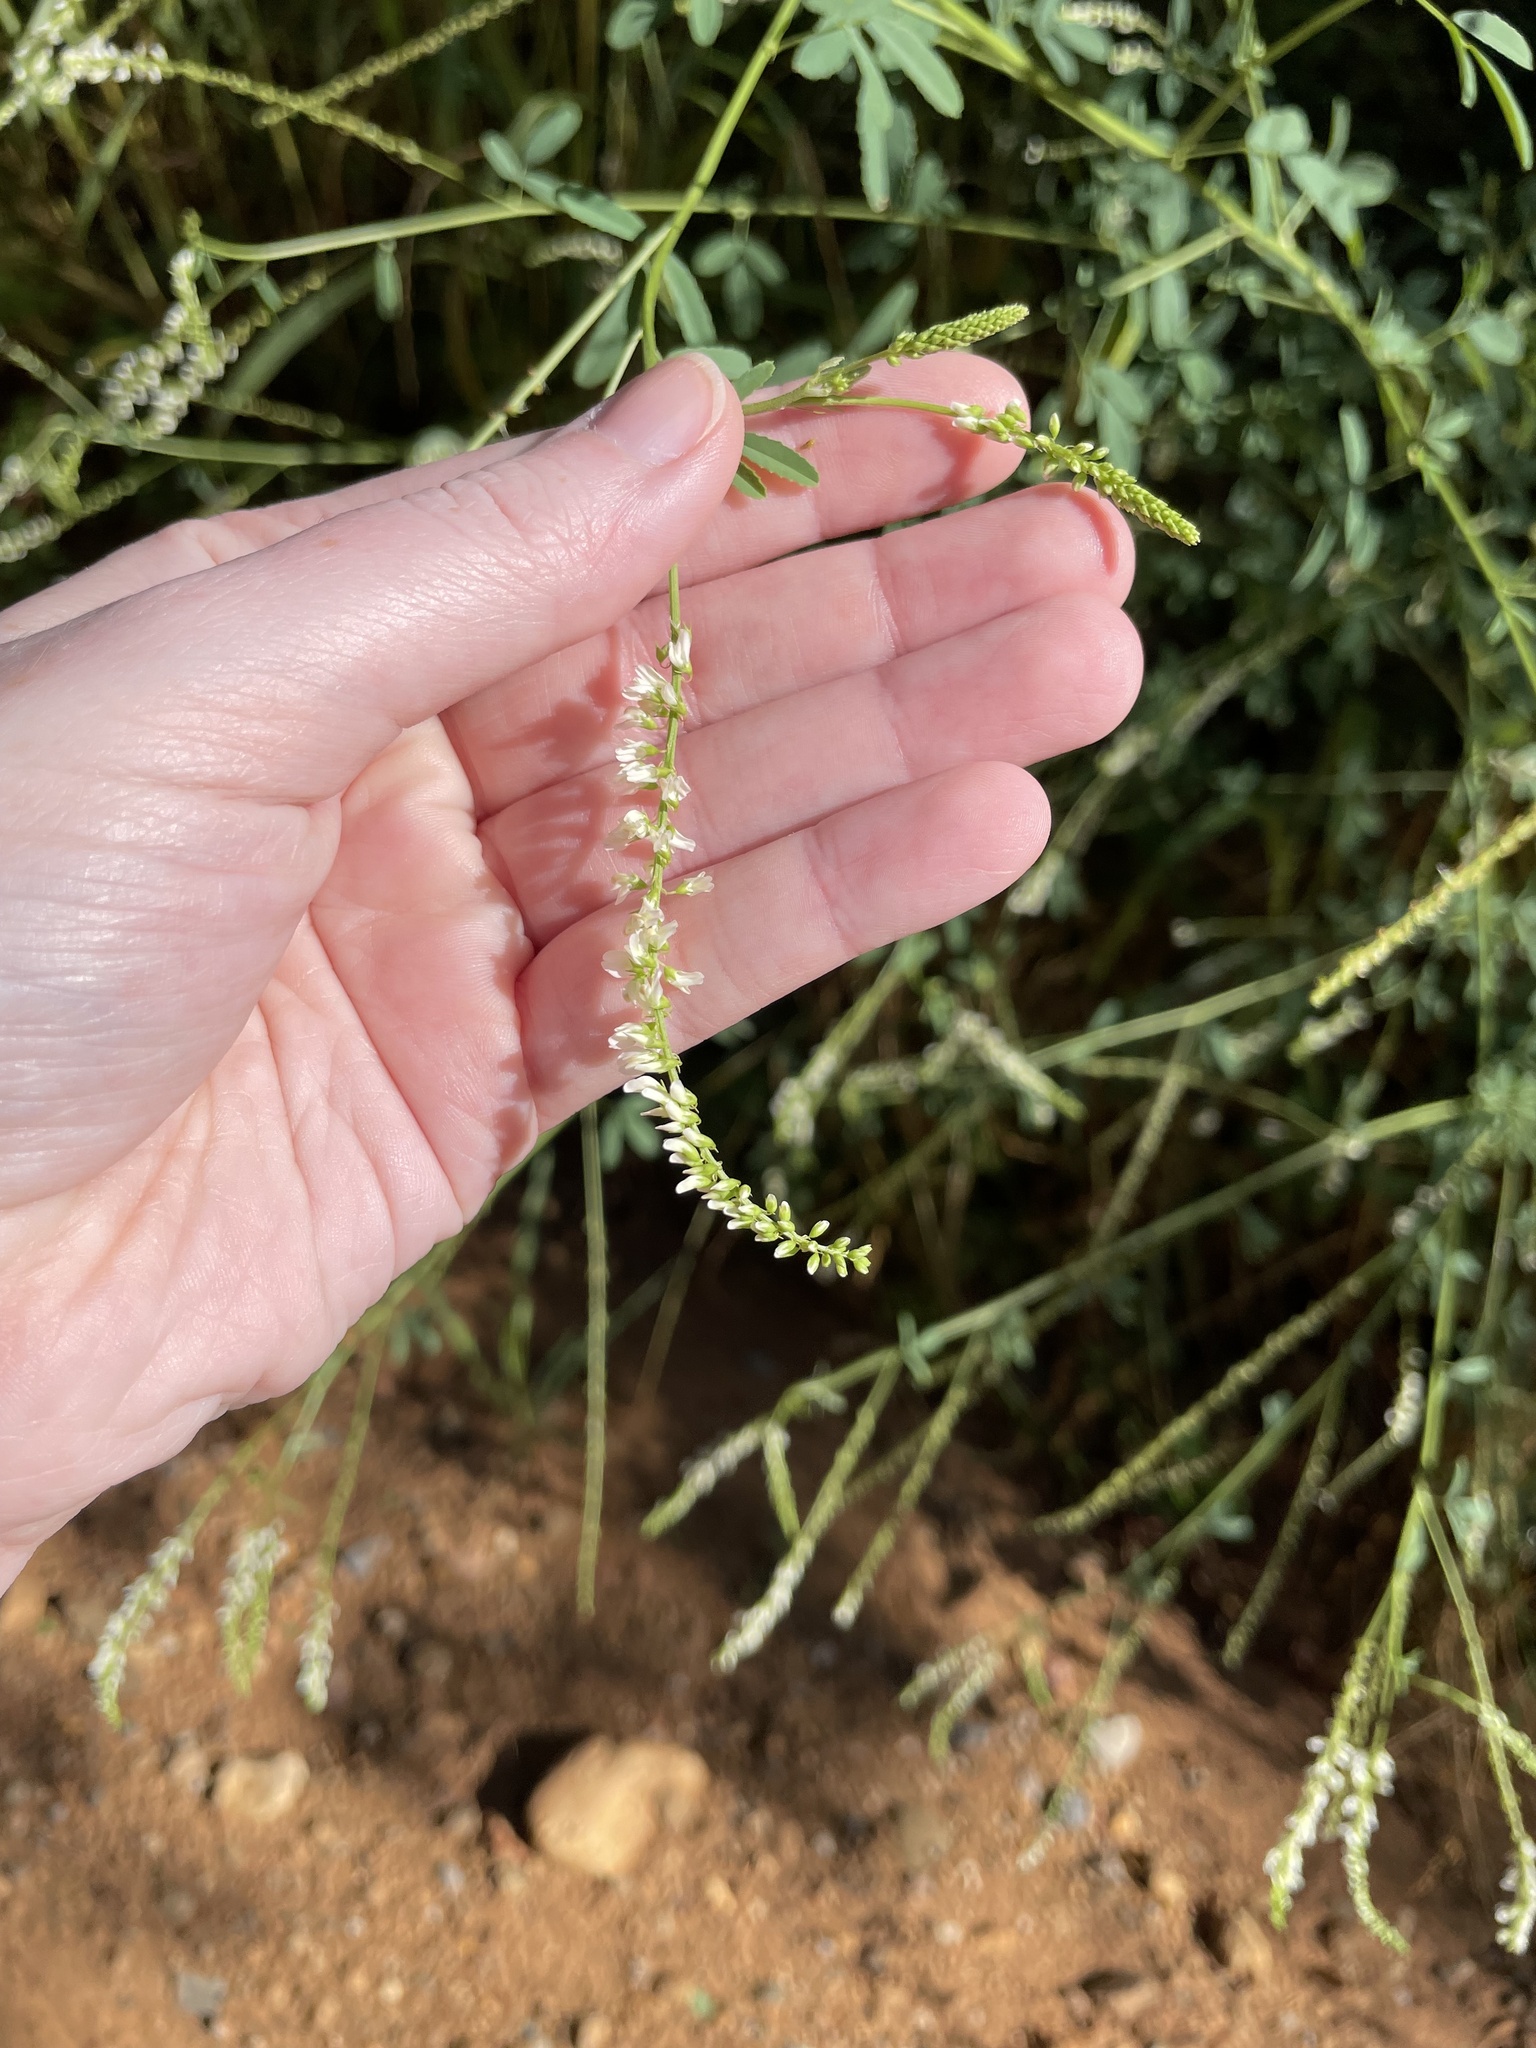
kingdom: Plantae
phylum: Tracheophyta
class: Magnoliopsida
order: Fabales
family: Fabaceae
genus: Melilotus
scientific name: Melilotus albus
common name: White melilot
